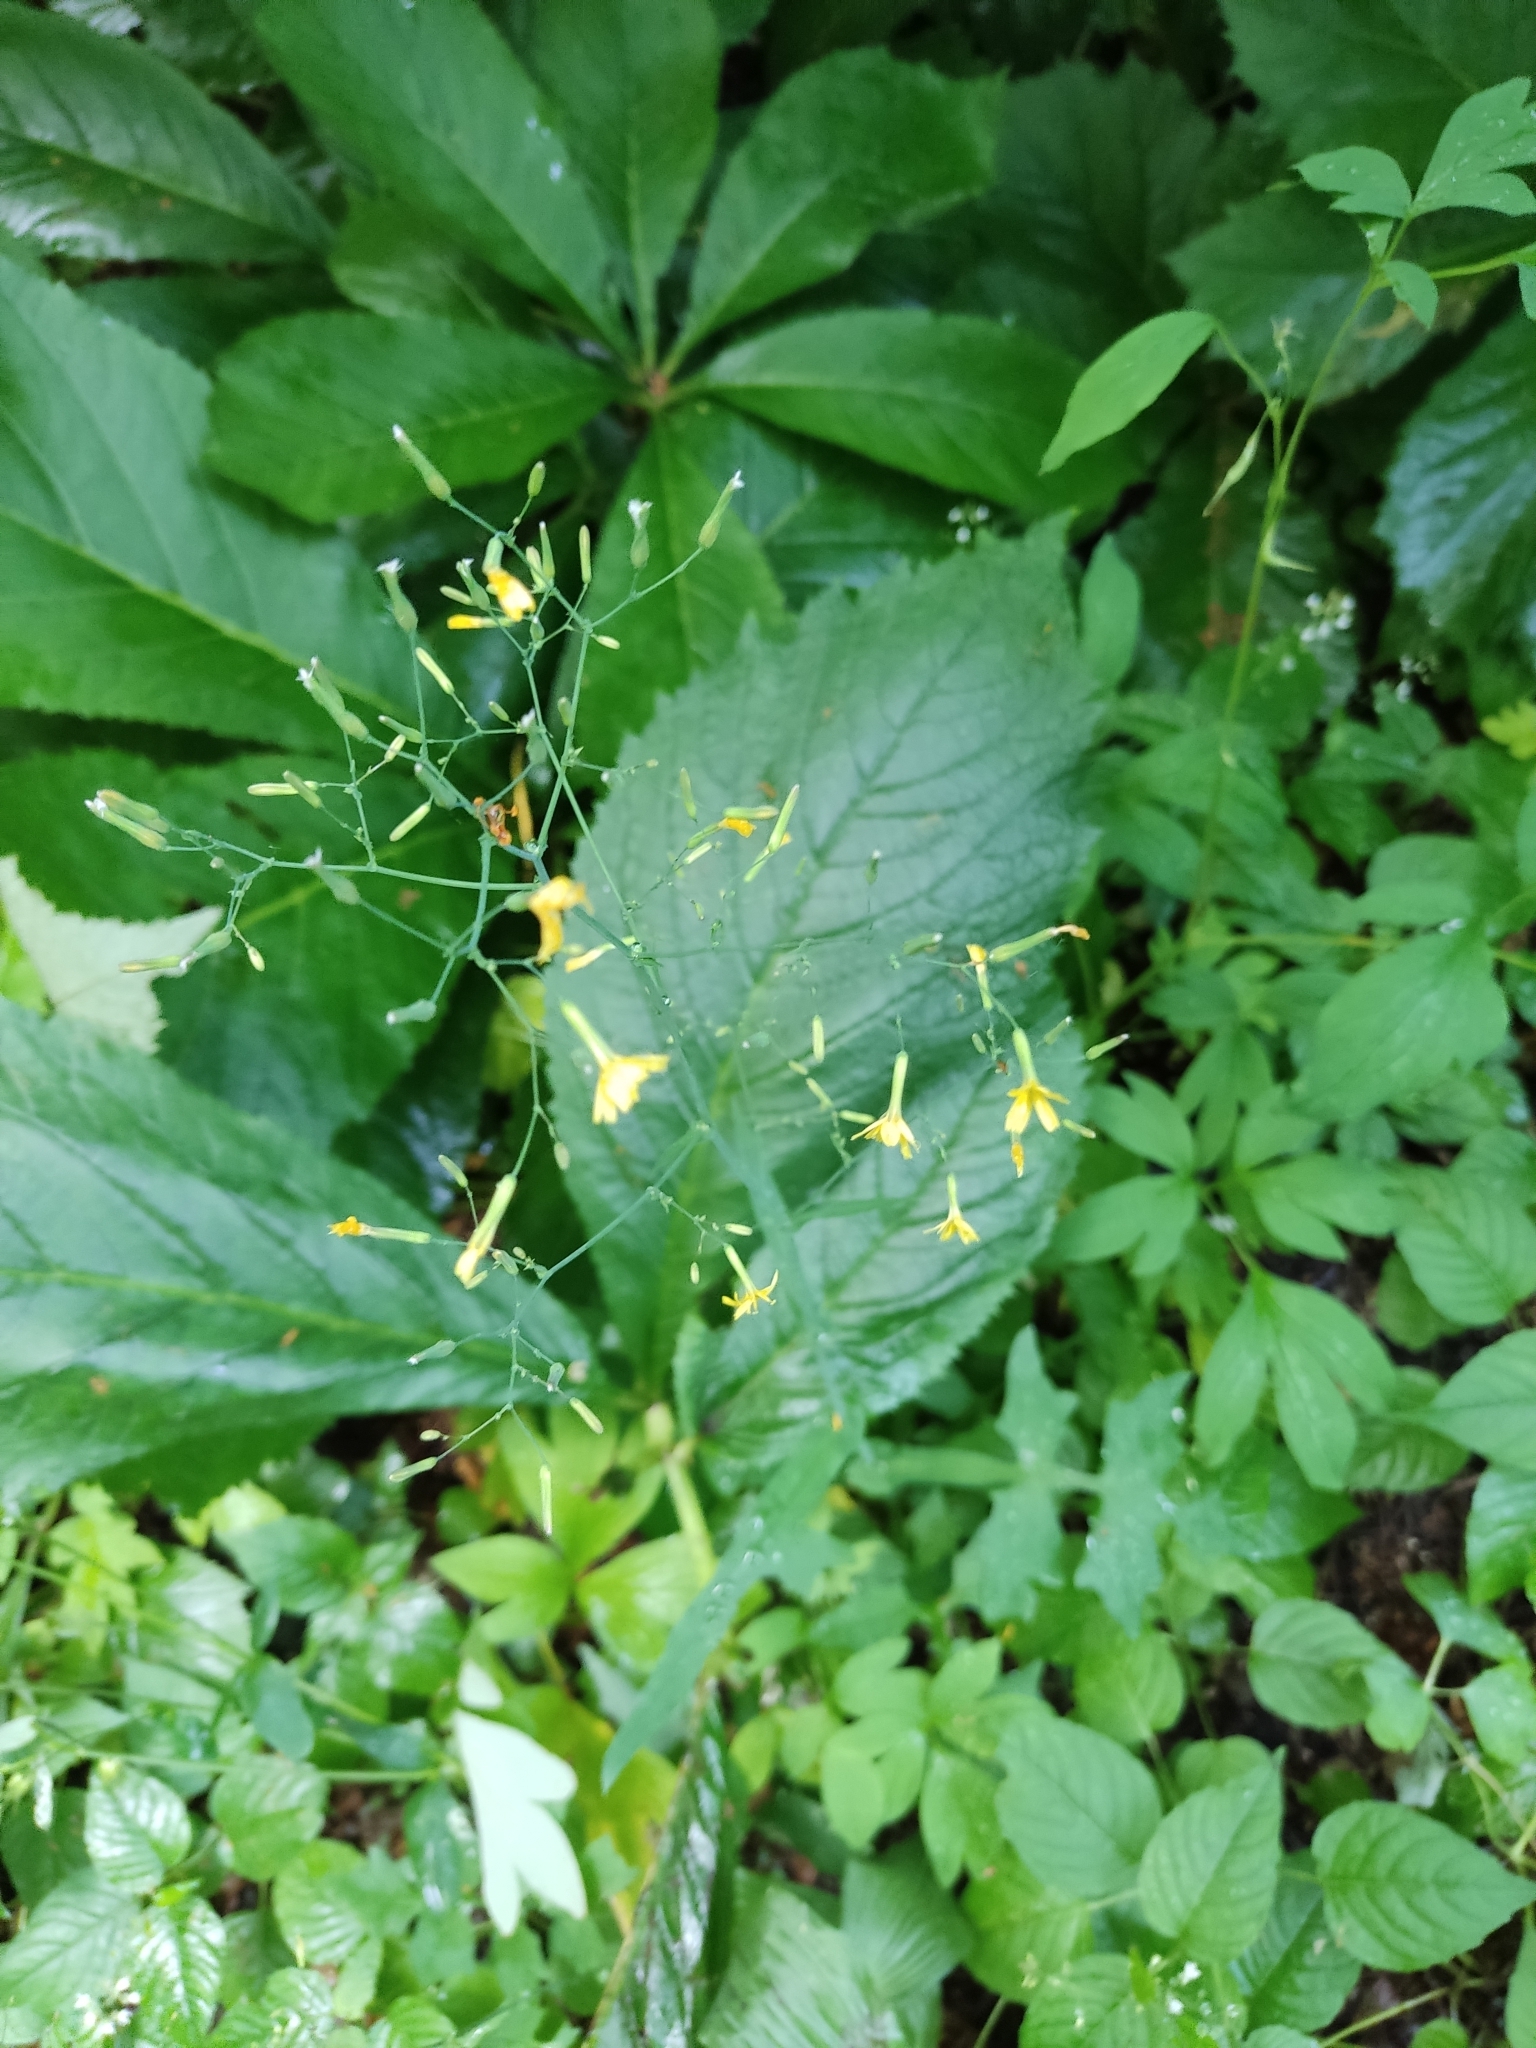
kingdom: Plantae
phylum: Tracheophyta
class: Magnoliopsida
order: Asterales
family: Asteraceae
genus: Mycelis
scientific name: Mycelis muralis
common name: Wall lettuce
